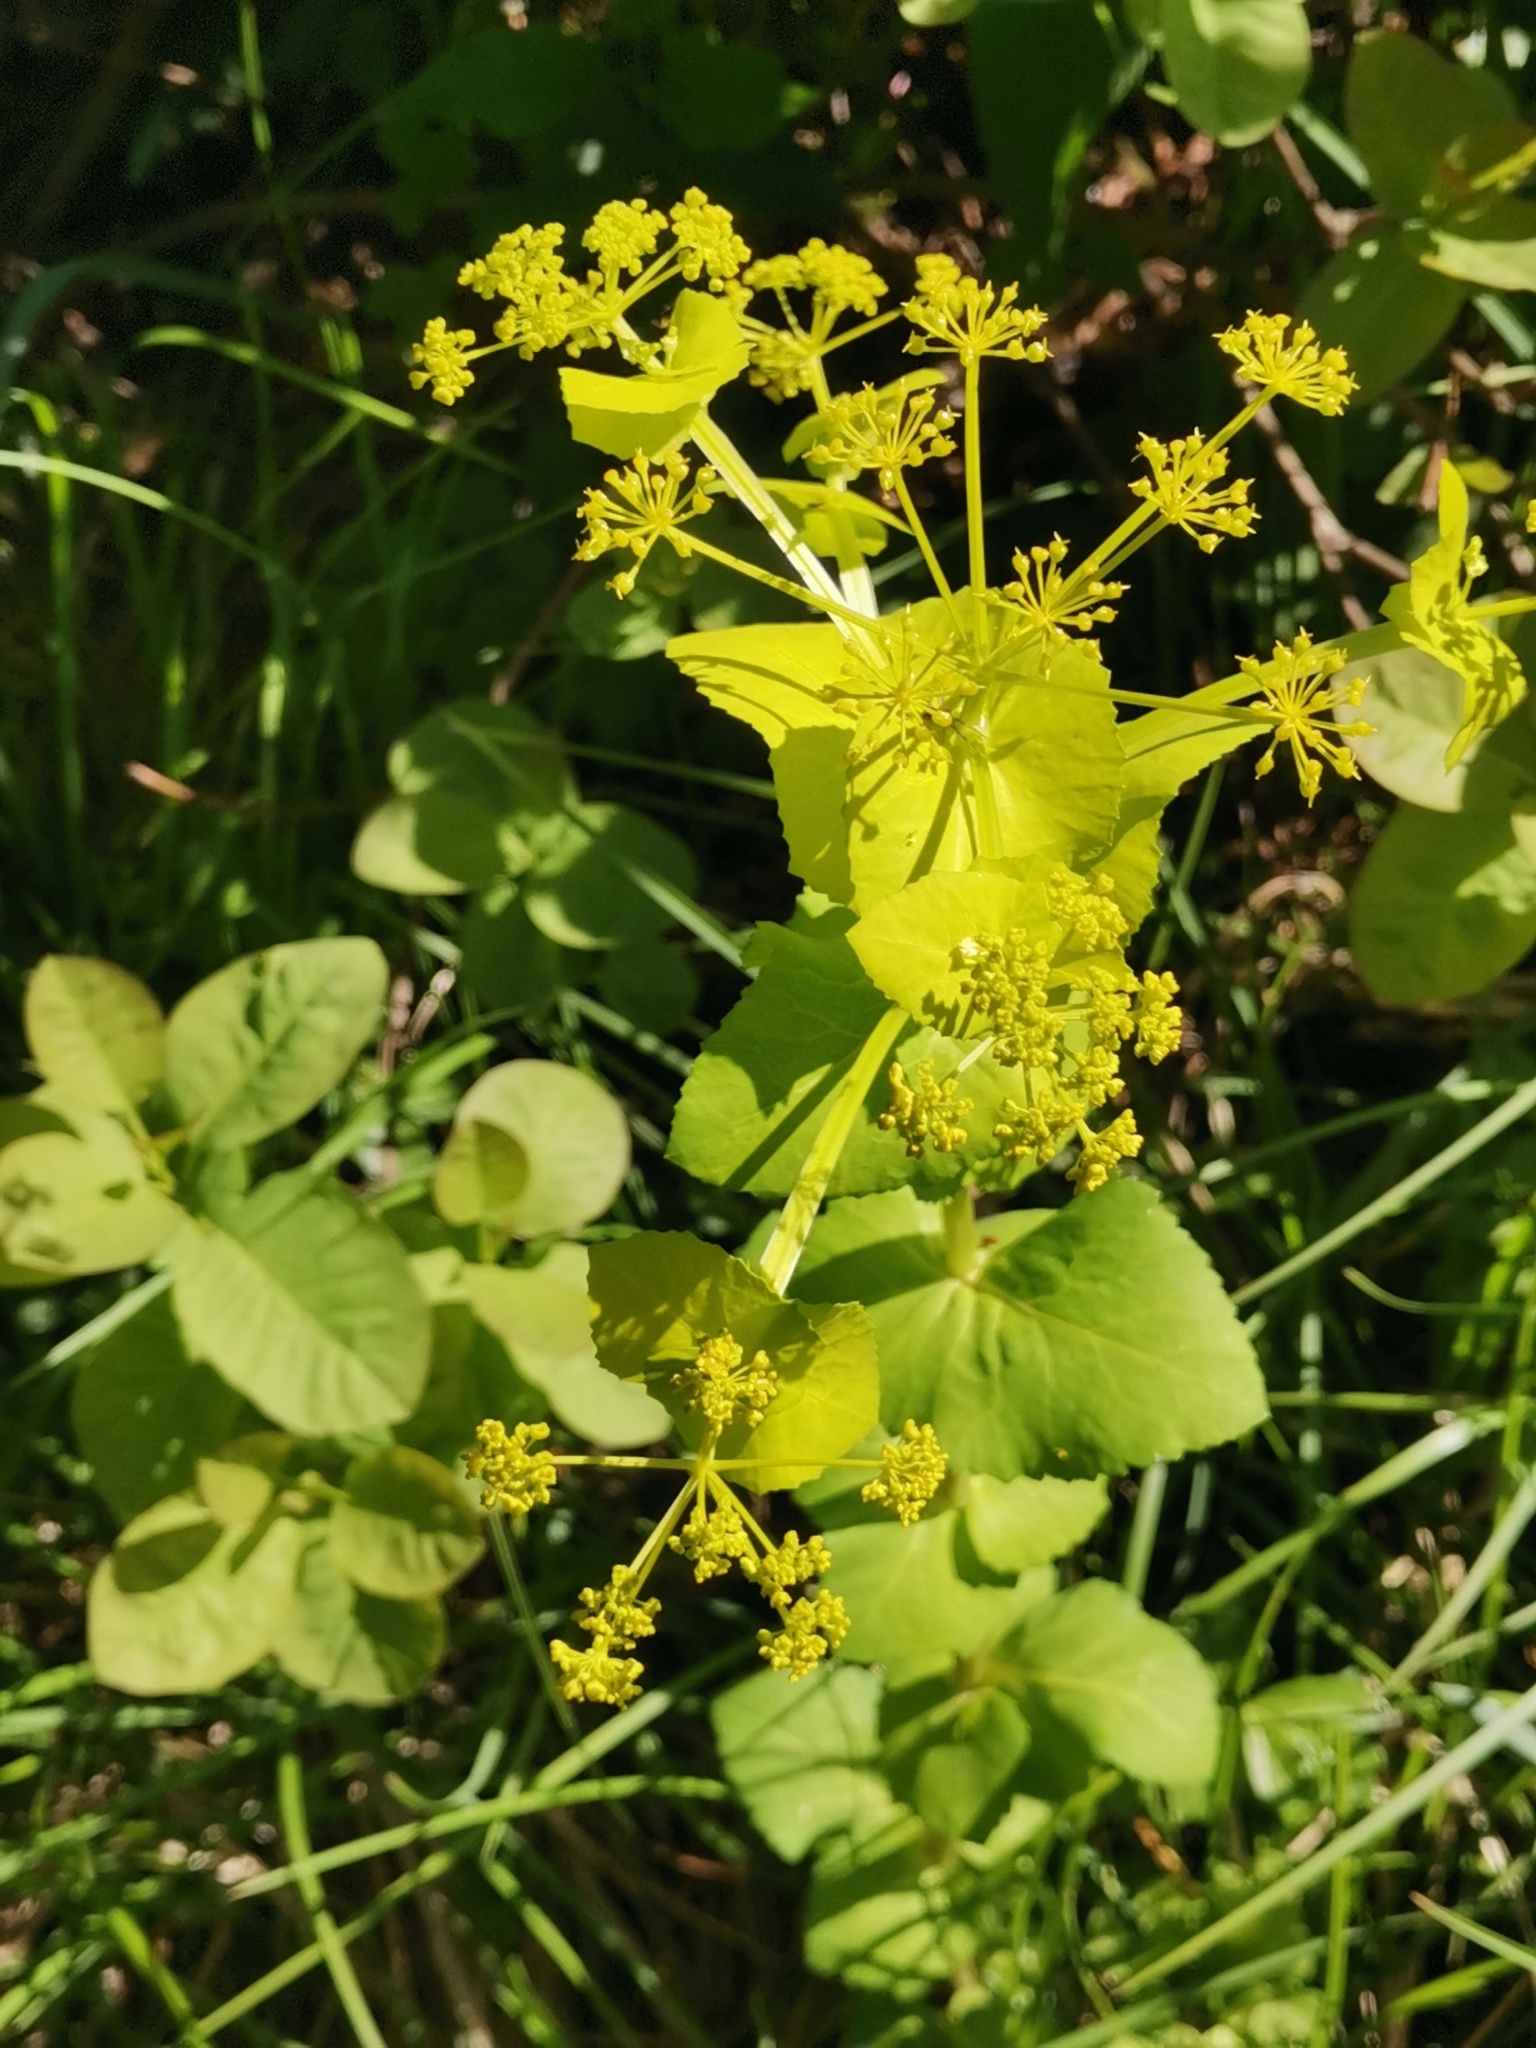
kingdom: Plantae
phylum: Tracheophyta
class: Magnoliopsida
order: Apiales
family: Apiaceae
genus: Smyrnium
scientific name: Smyrnium perfoliatum
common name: Perfoliate alexanders
